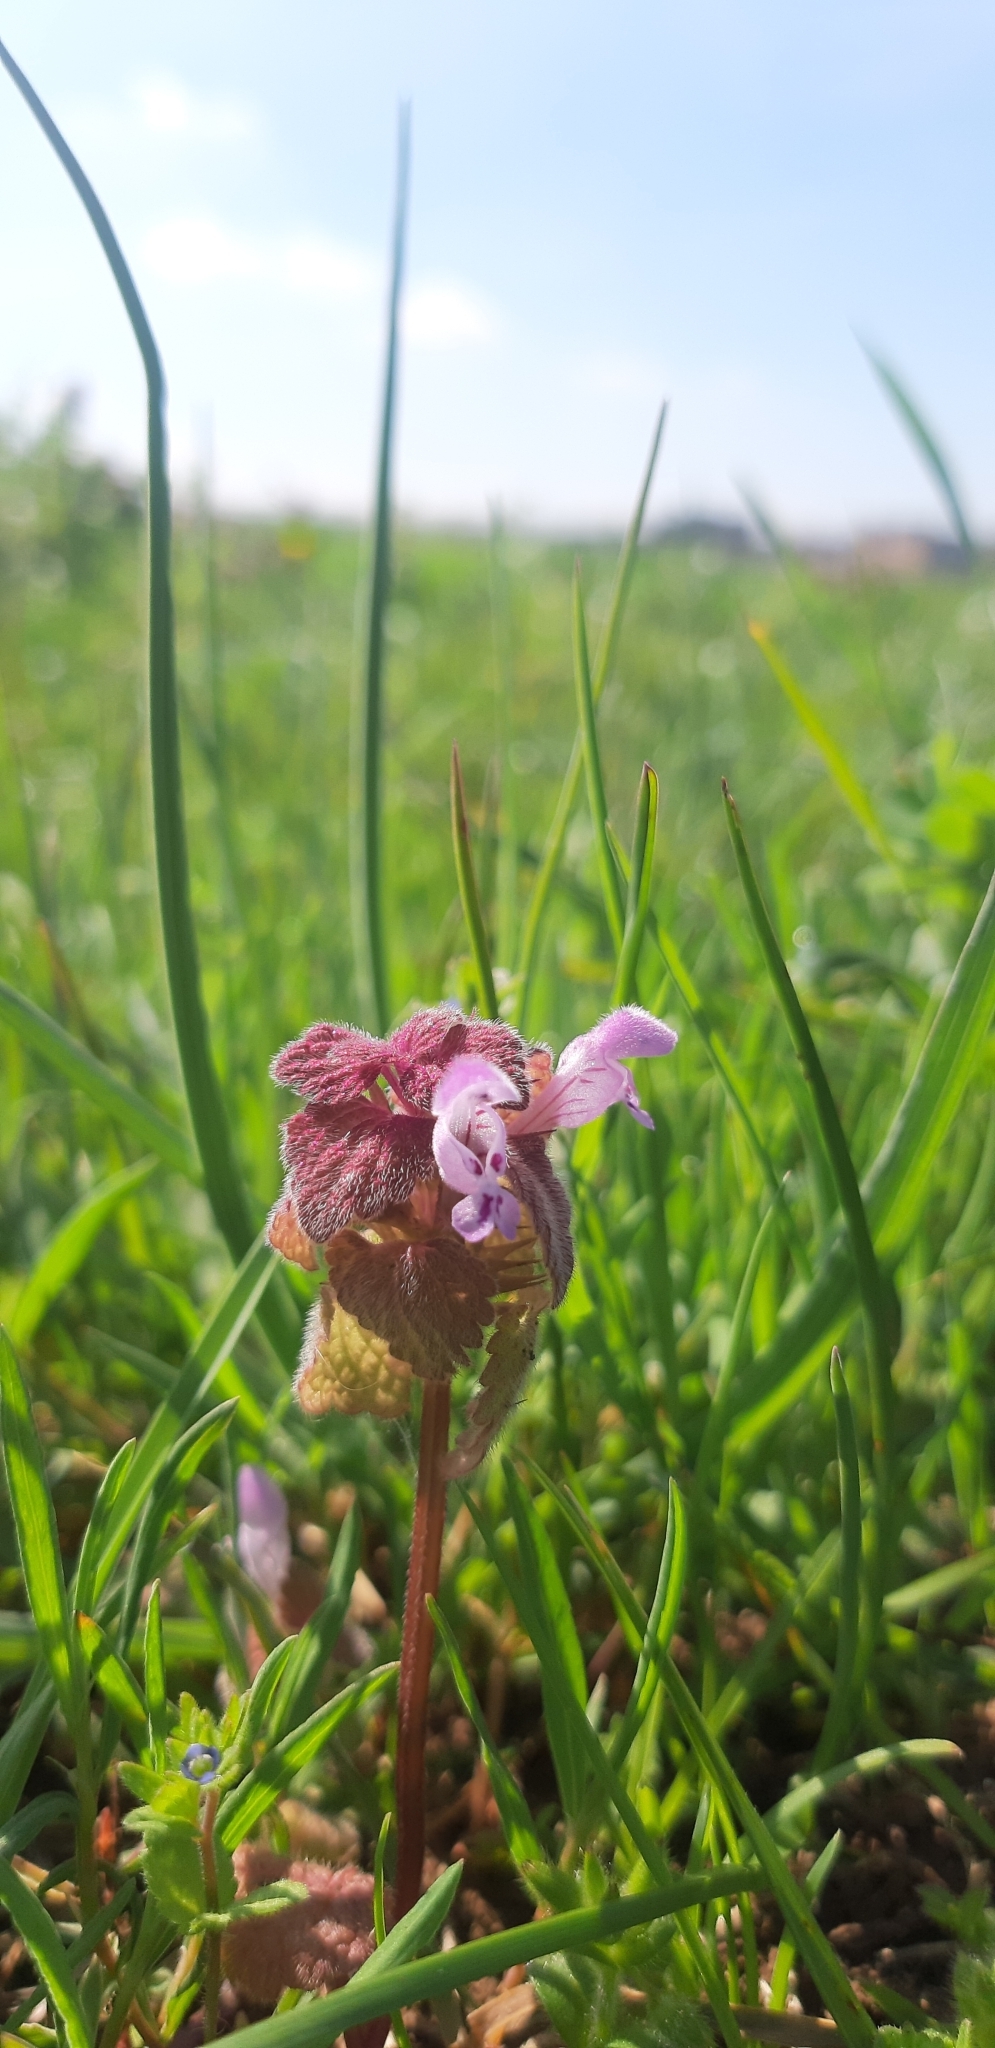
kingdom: Plantae
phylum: Tracheophyta
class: Magnoliopsida
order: Lamiales
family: Lamiaceae
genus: Lamium
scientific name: Lamium purpureum
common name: Red dead-nettle
